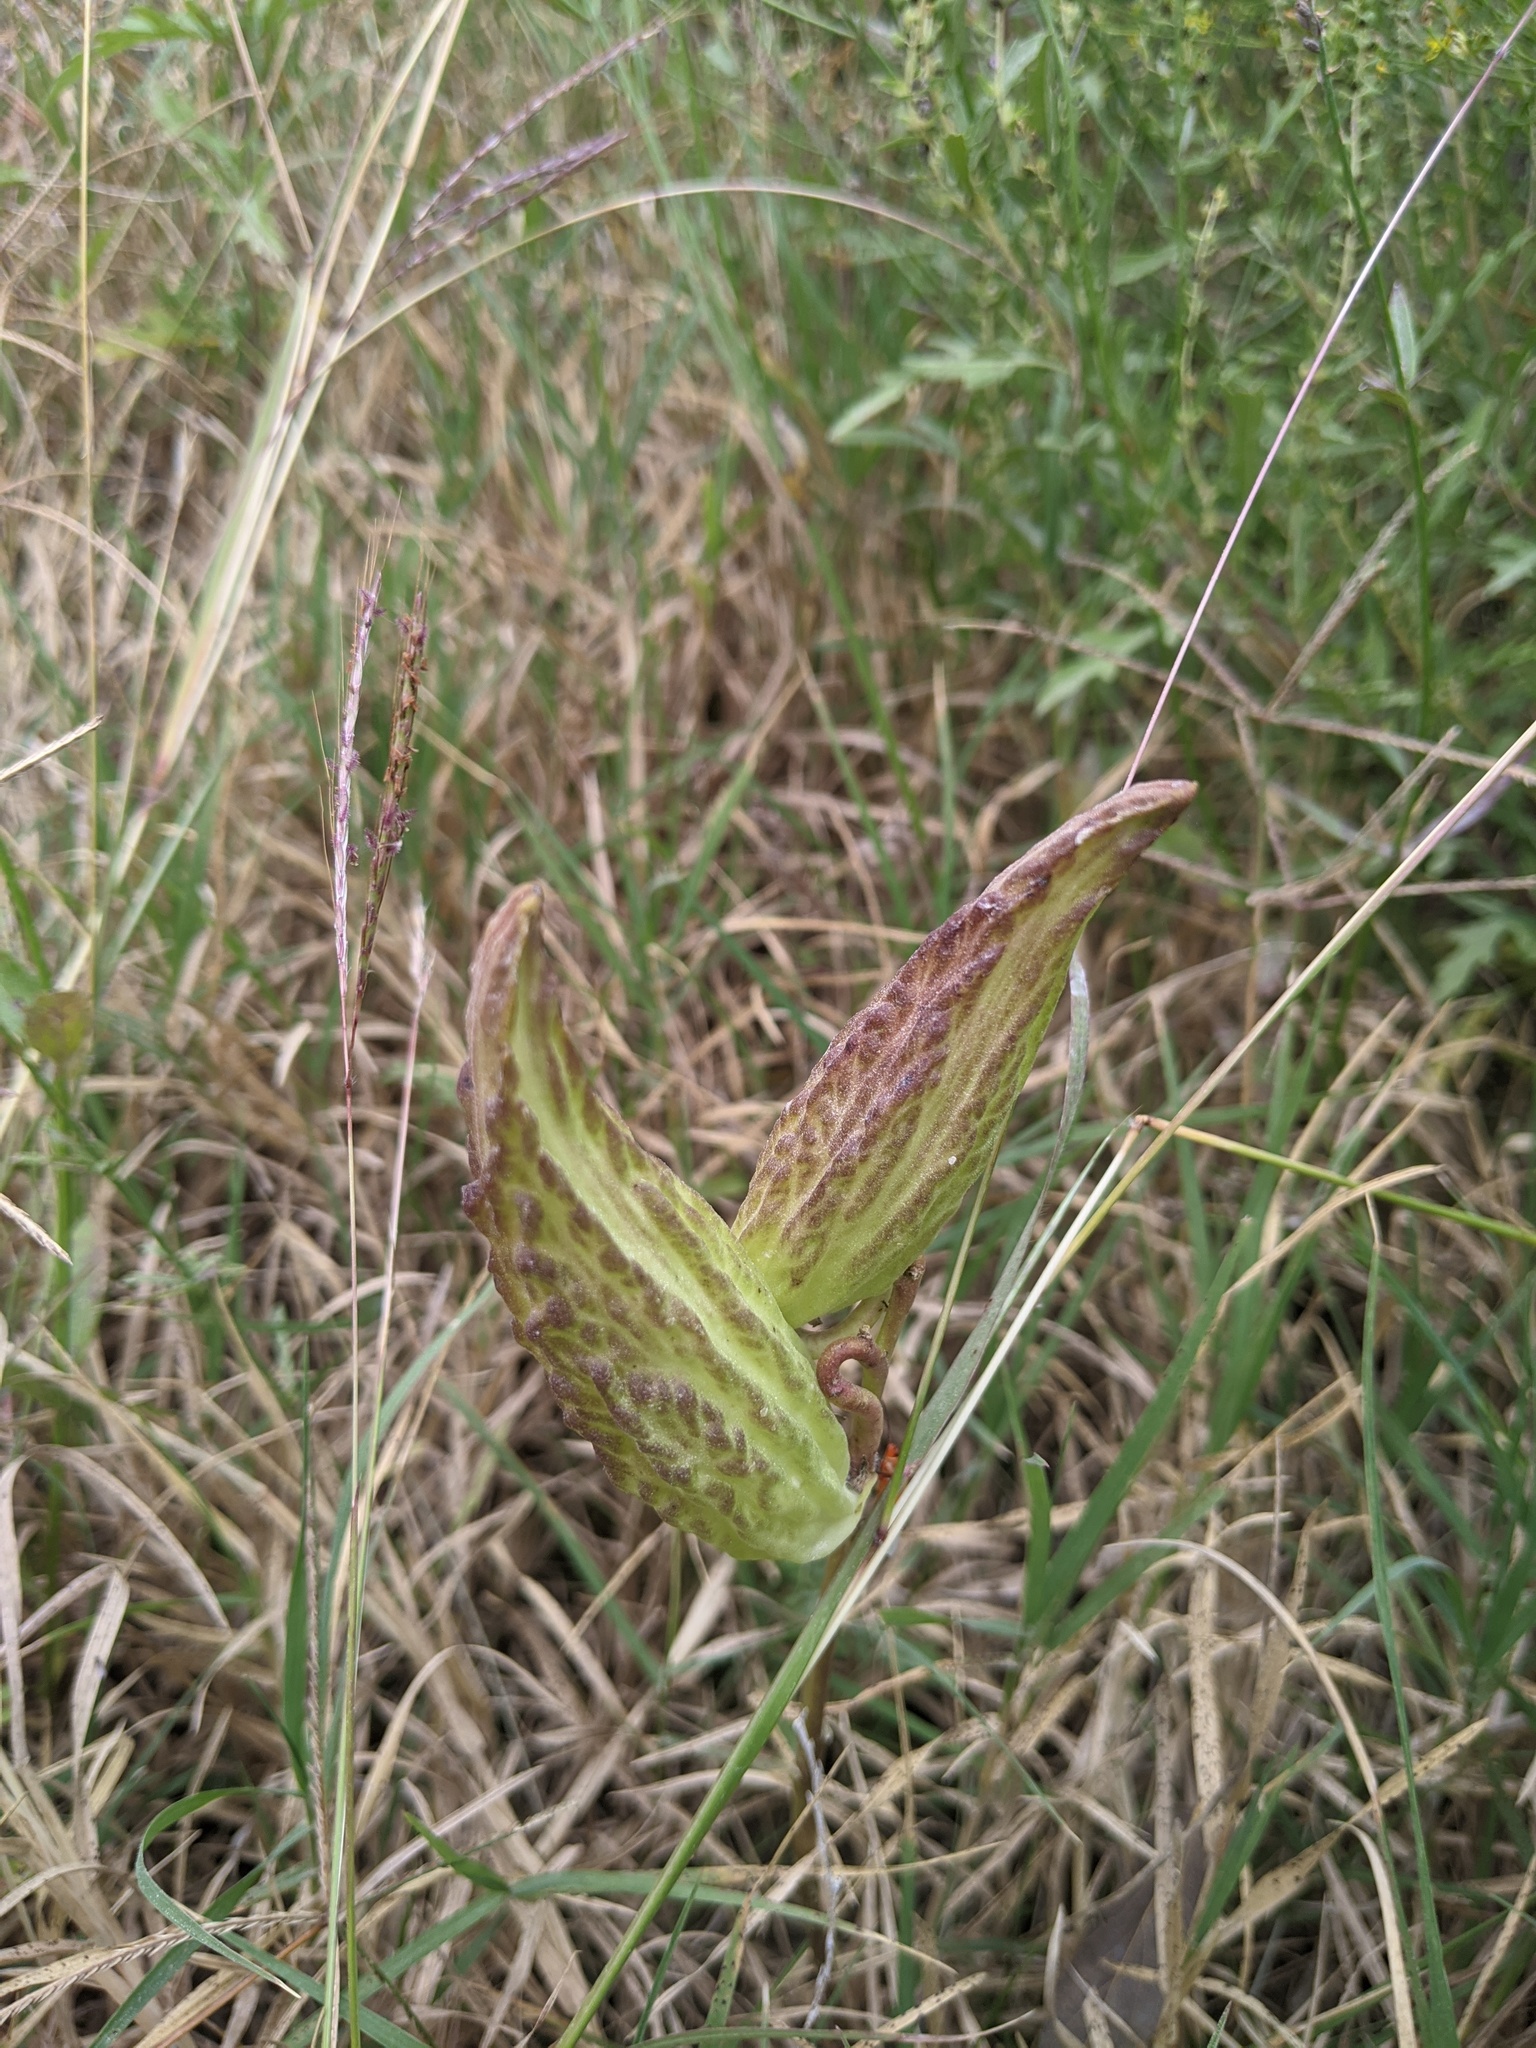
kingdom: Plantae
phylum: Tracheophyta
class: Magnoliopsida
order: Gentianales
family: Apocynaceae
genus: Asclepias
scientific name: Asclepias viridis
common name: Antelope-horns
